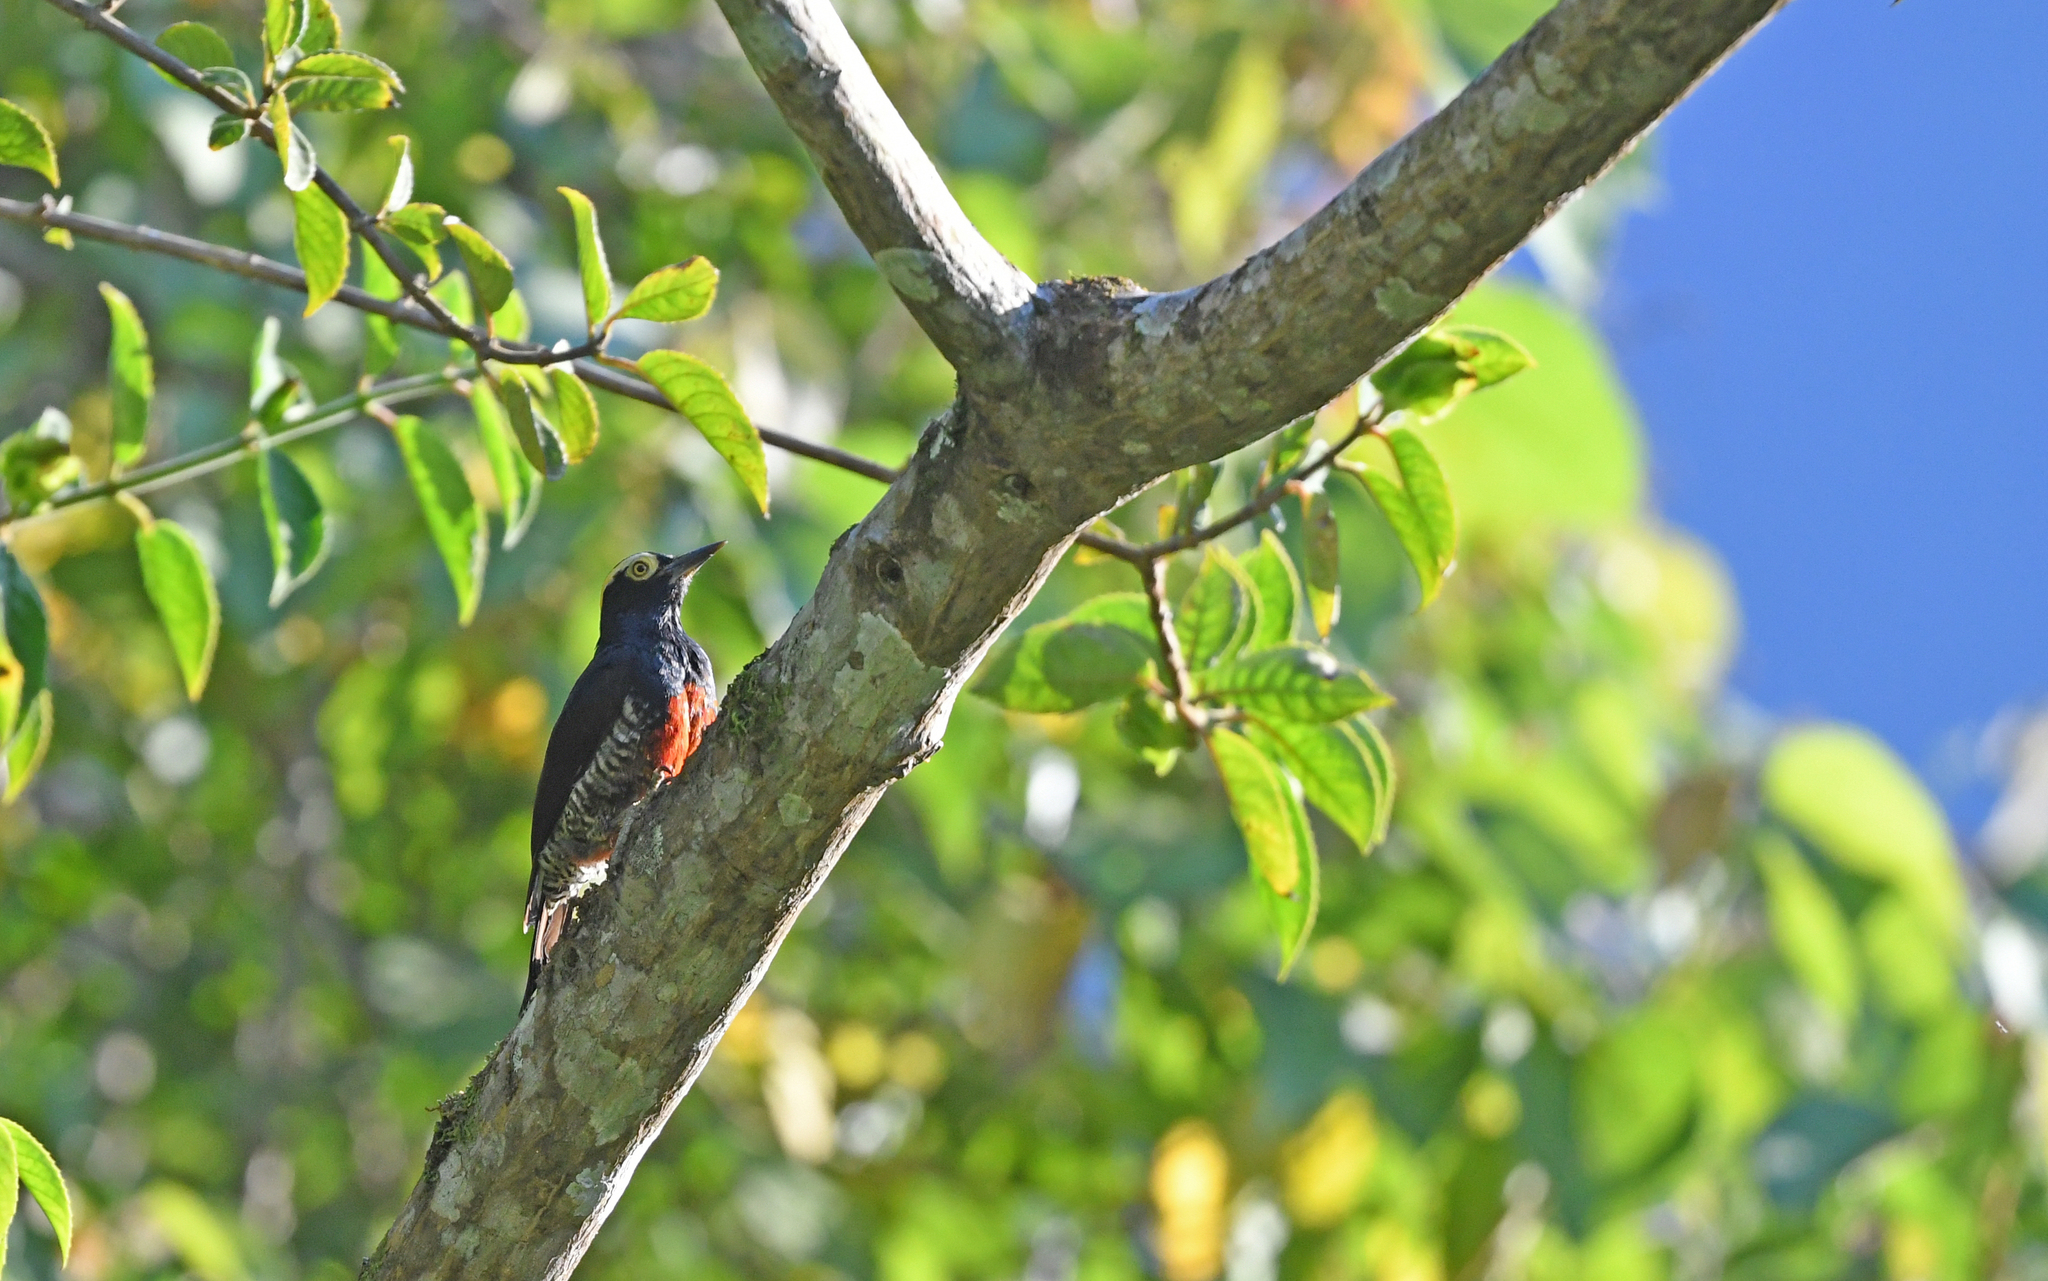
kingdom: Animalia
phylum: Chordata
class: Aves
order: Piciformes
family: Picidae
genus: Melanerpes
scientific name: Melanerpes cruentatus
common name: Yellow-tufted woodpecker
